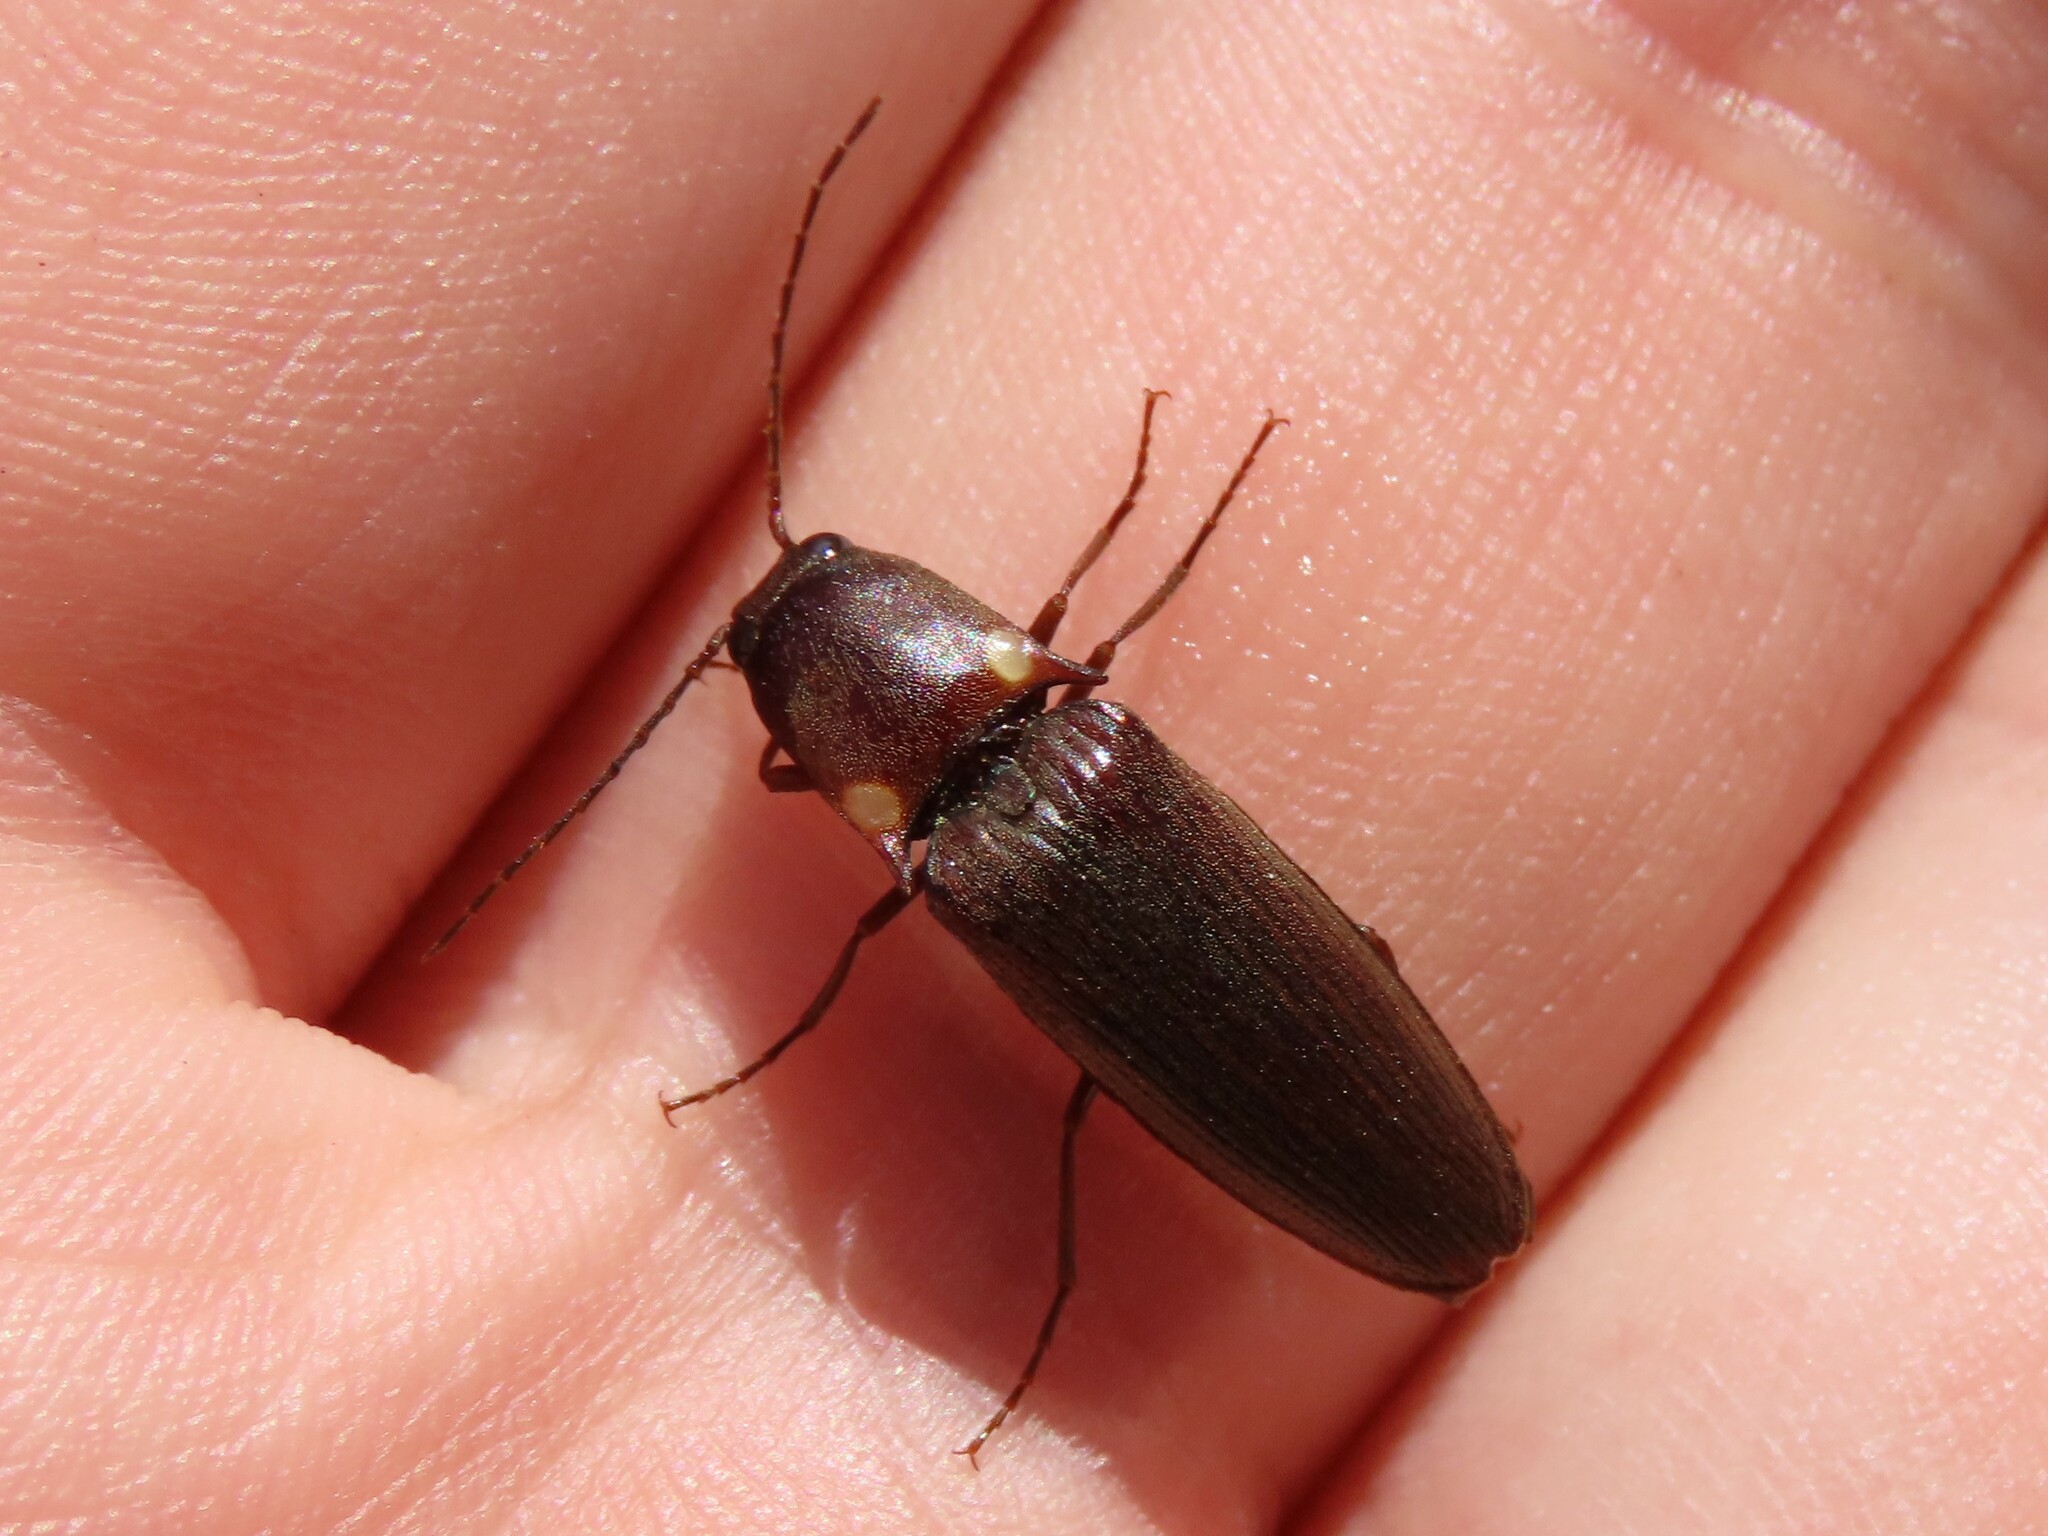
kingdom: Animalia
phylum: Arthropoda
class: Insecta
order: Coleoptera
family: Elateridae
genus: Deilelater
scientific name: Deilelater
